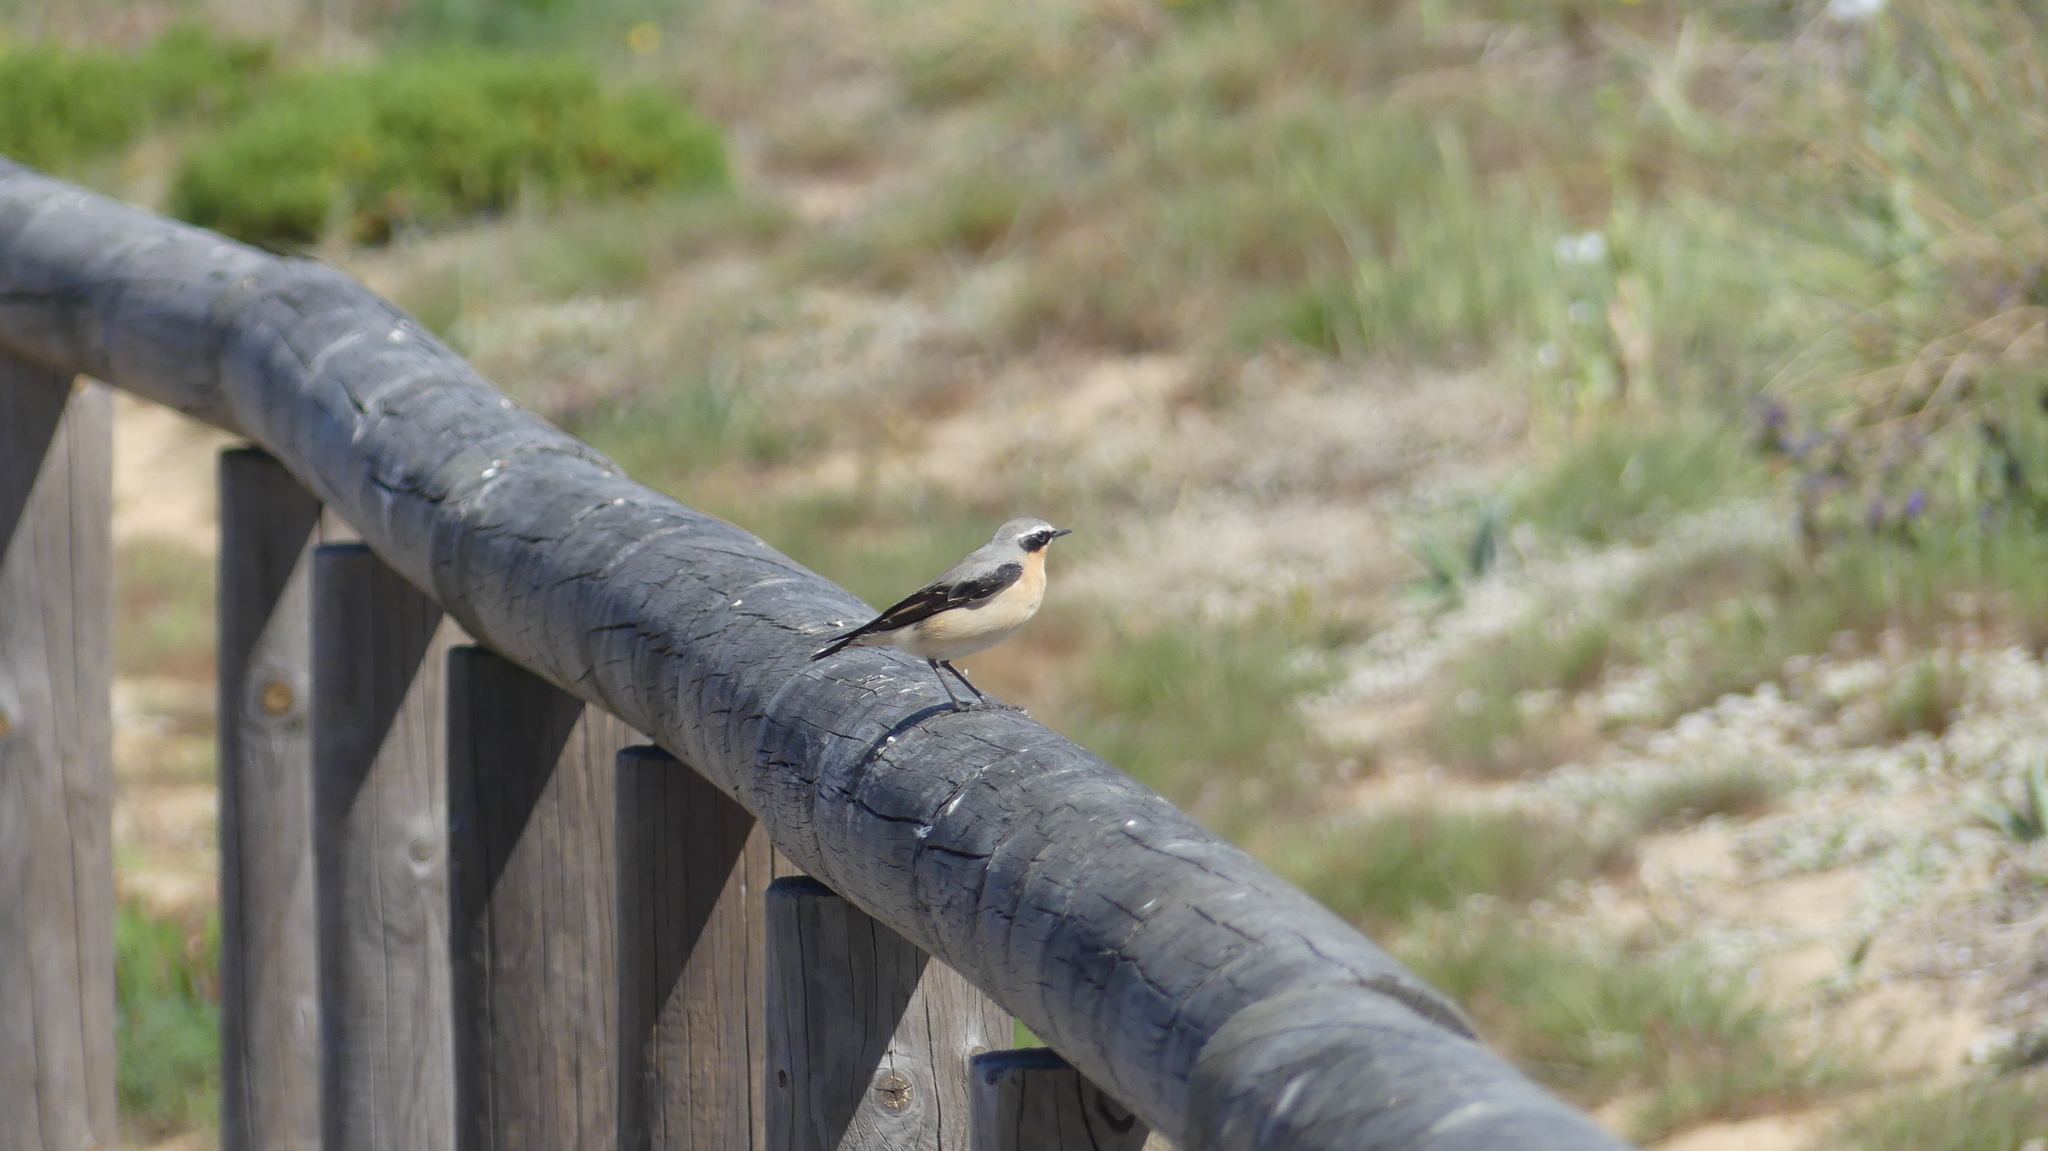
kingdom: Animalia
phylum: Chordata
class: Aves
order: Passeriformes
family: Muscicapidae
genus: Oenanthe
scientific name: Oenanthe oenanthe
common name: Northern wheatear
